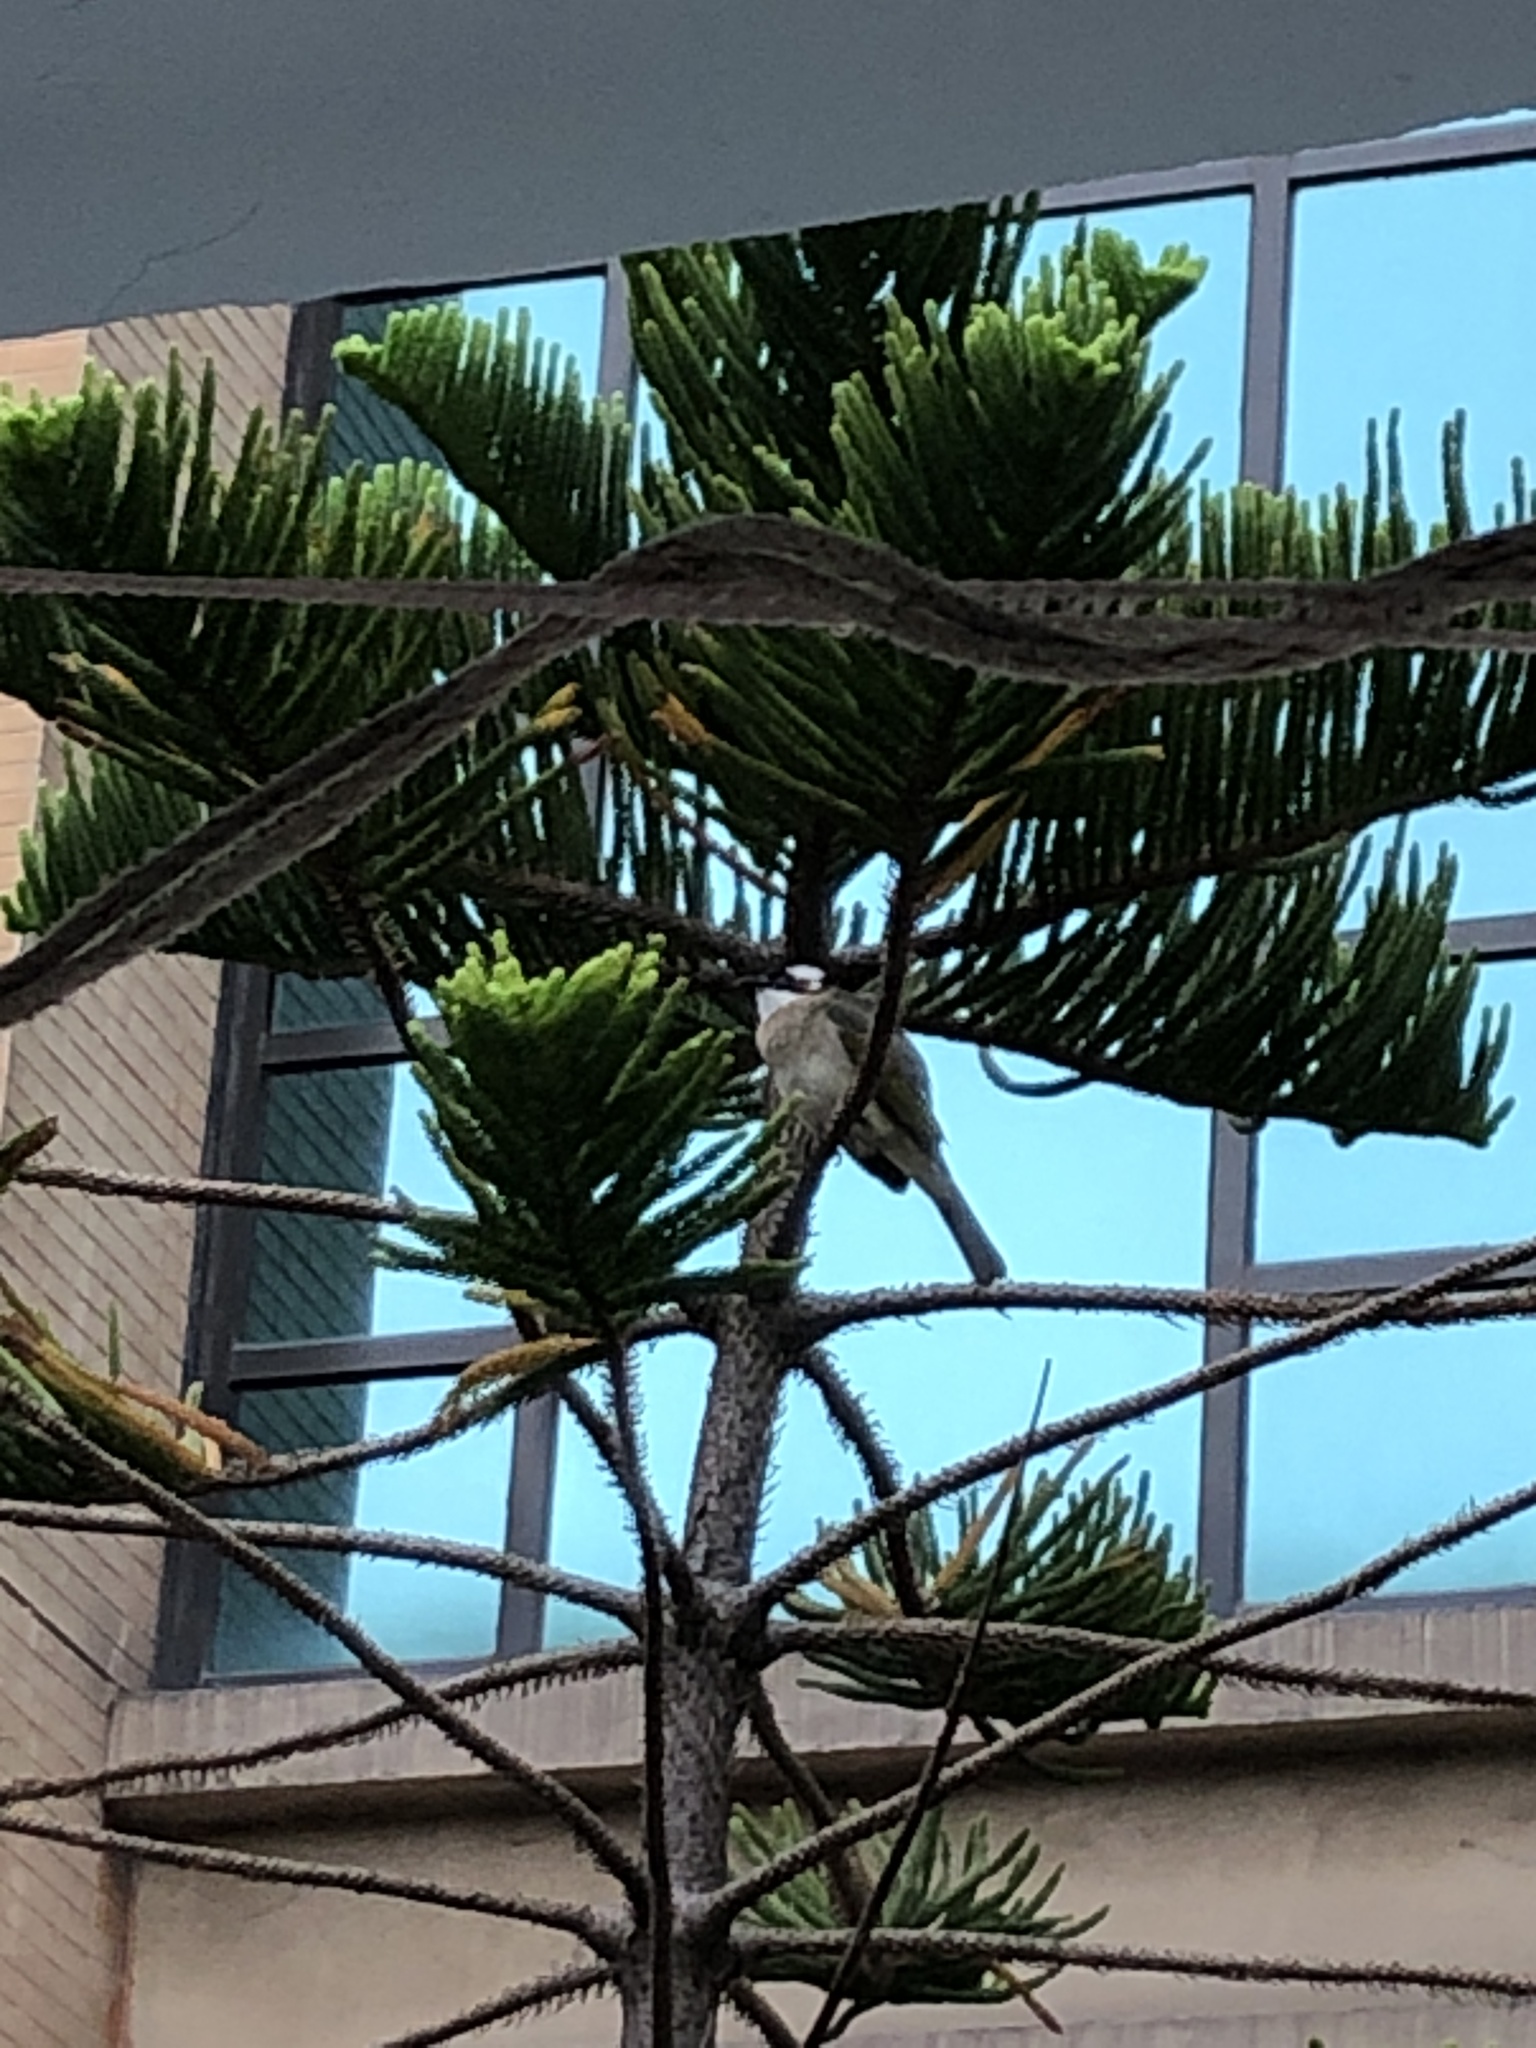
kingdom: Animalia
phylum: Chordata
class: Aves
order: Passeriformes
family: Pycnonotidae
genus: Pycnonotus
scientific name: Pycnonotus sinensis
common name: Light-vented bulbul
